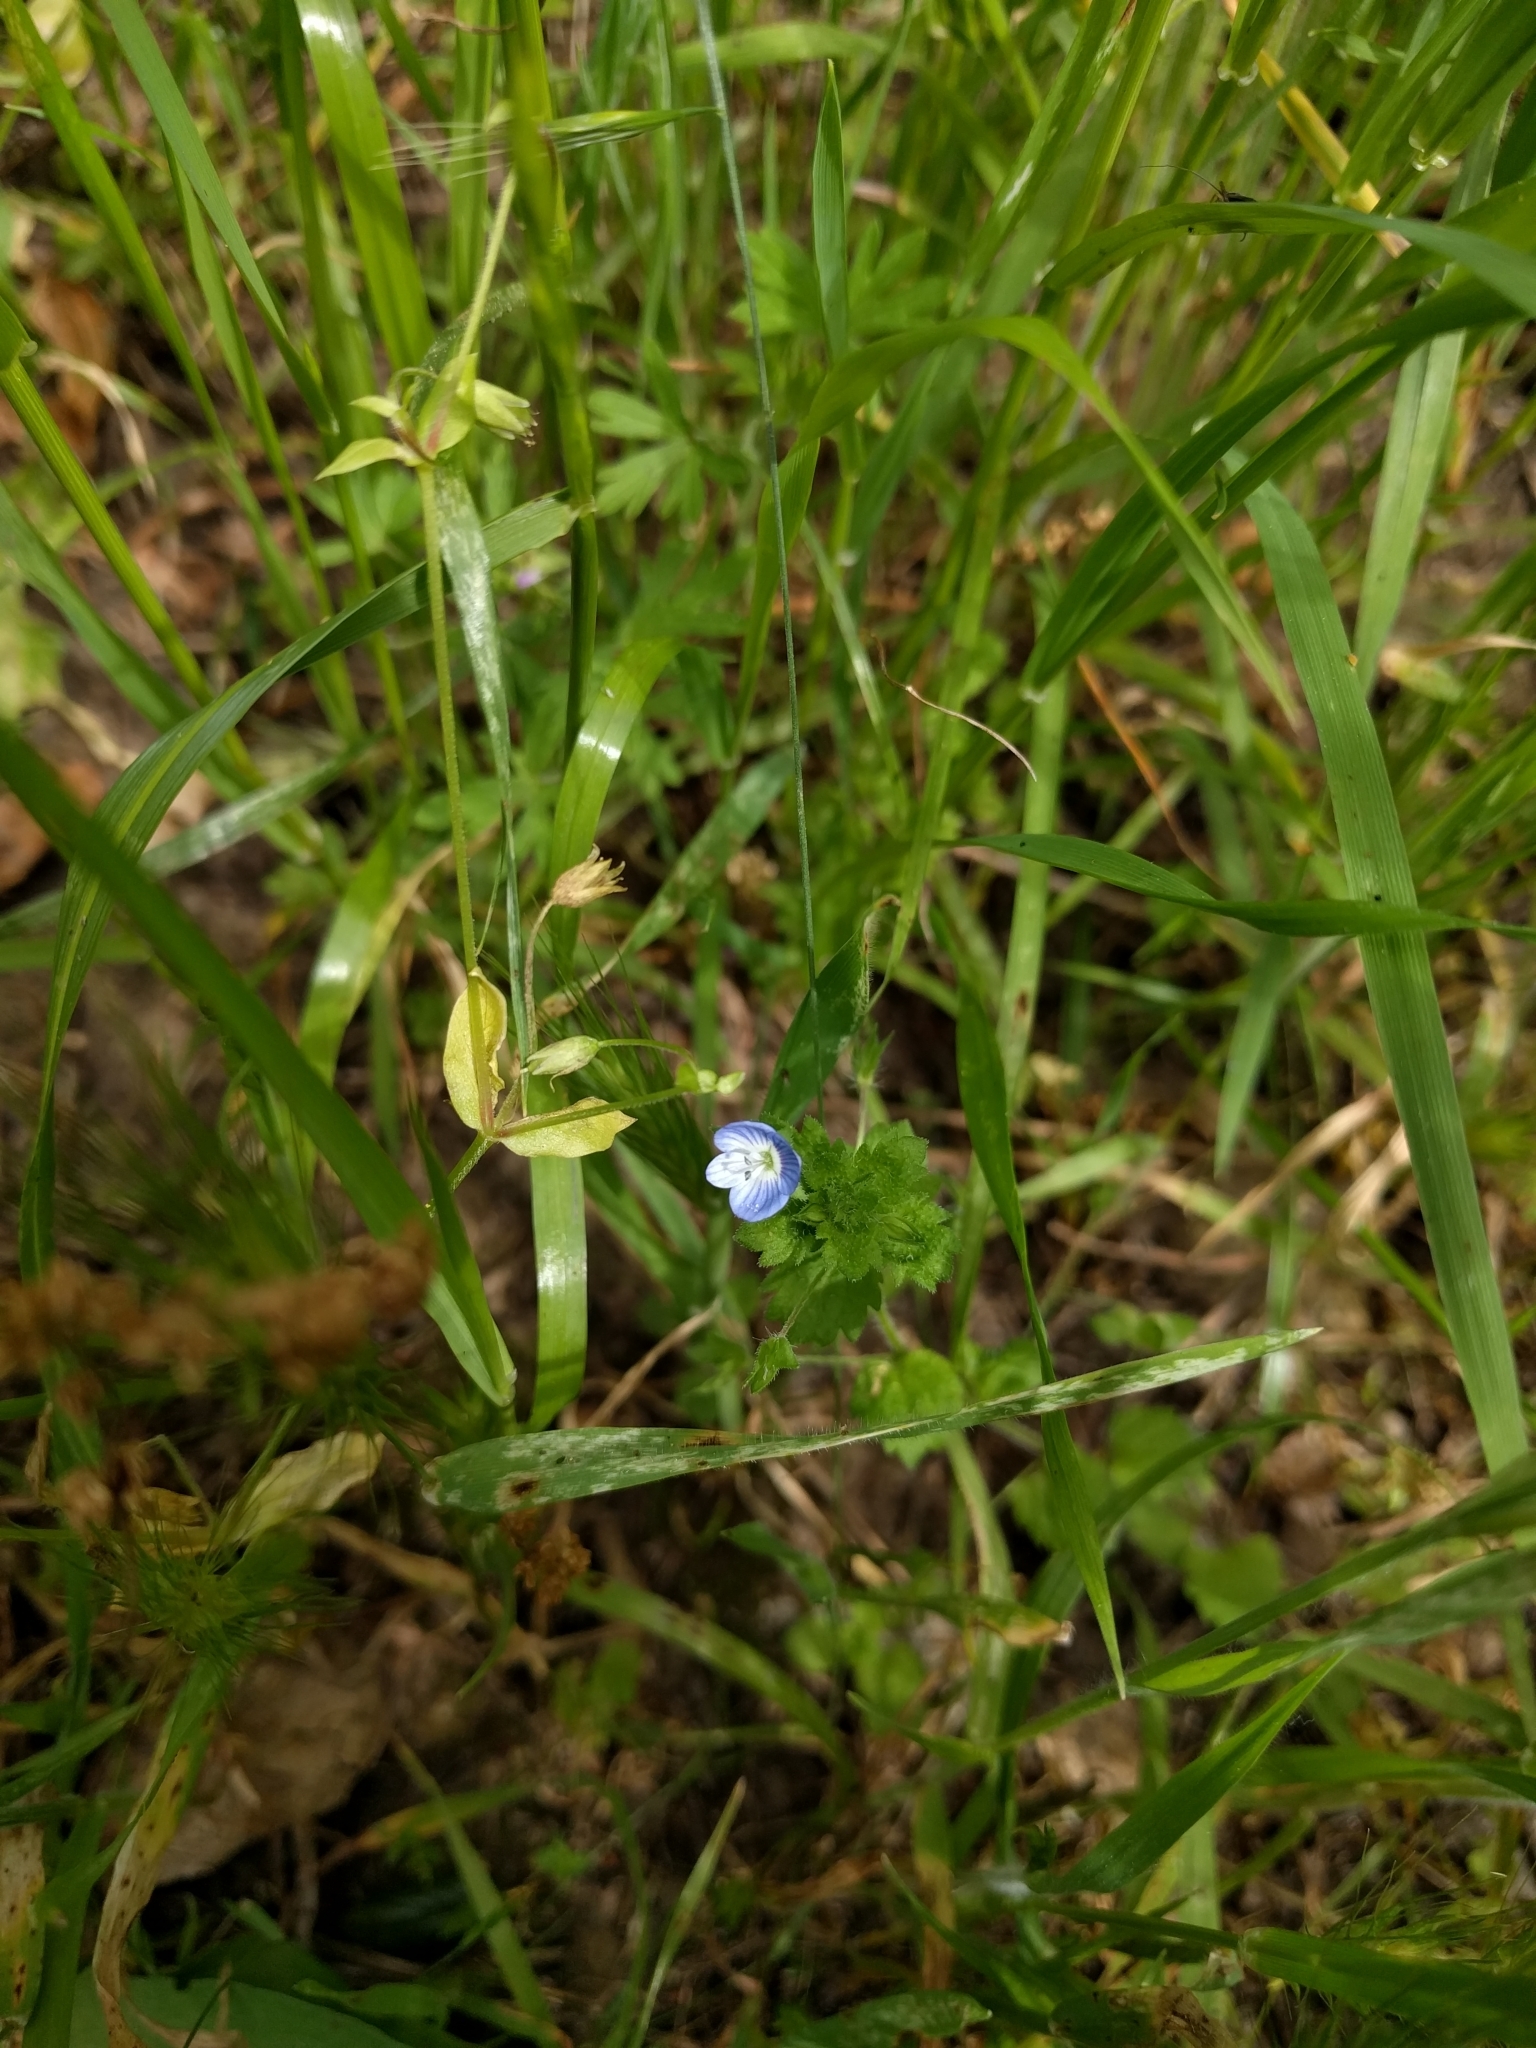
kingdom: Plantae
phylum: Tracheophyta
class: Magnoliopsida
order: Lamiales
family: Plantaginaceae
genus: Veronica
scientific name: Veronica persica
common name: Common field-speedwell
